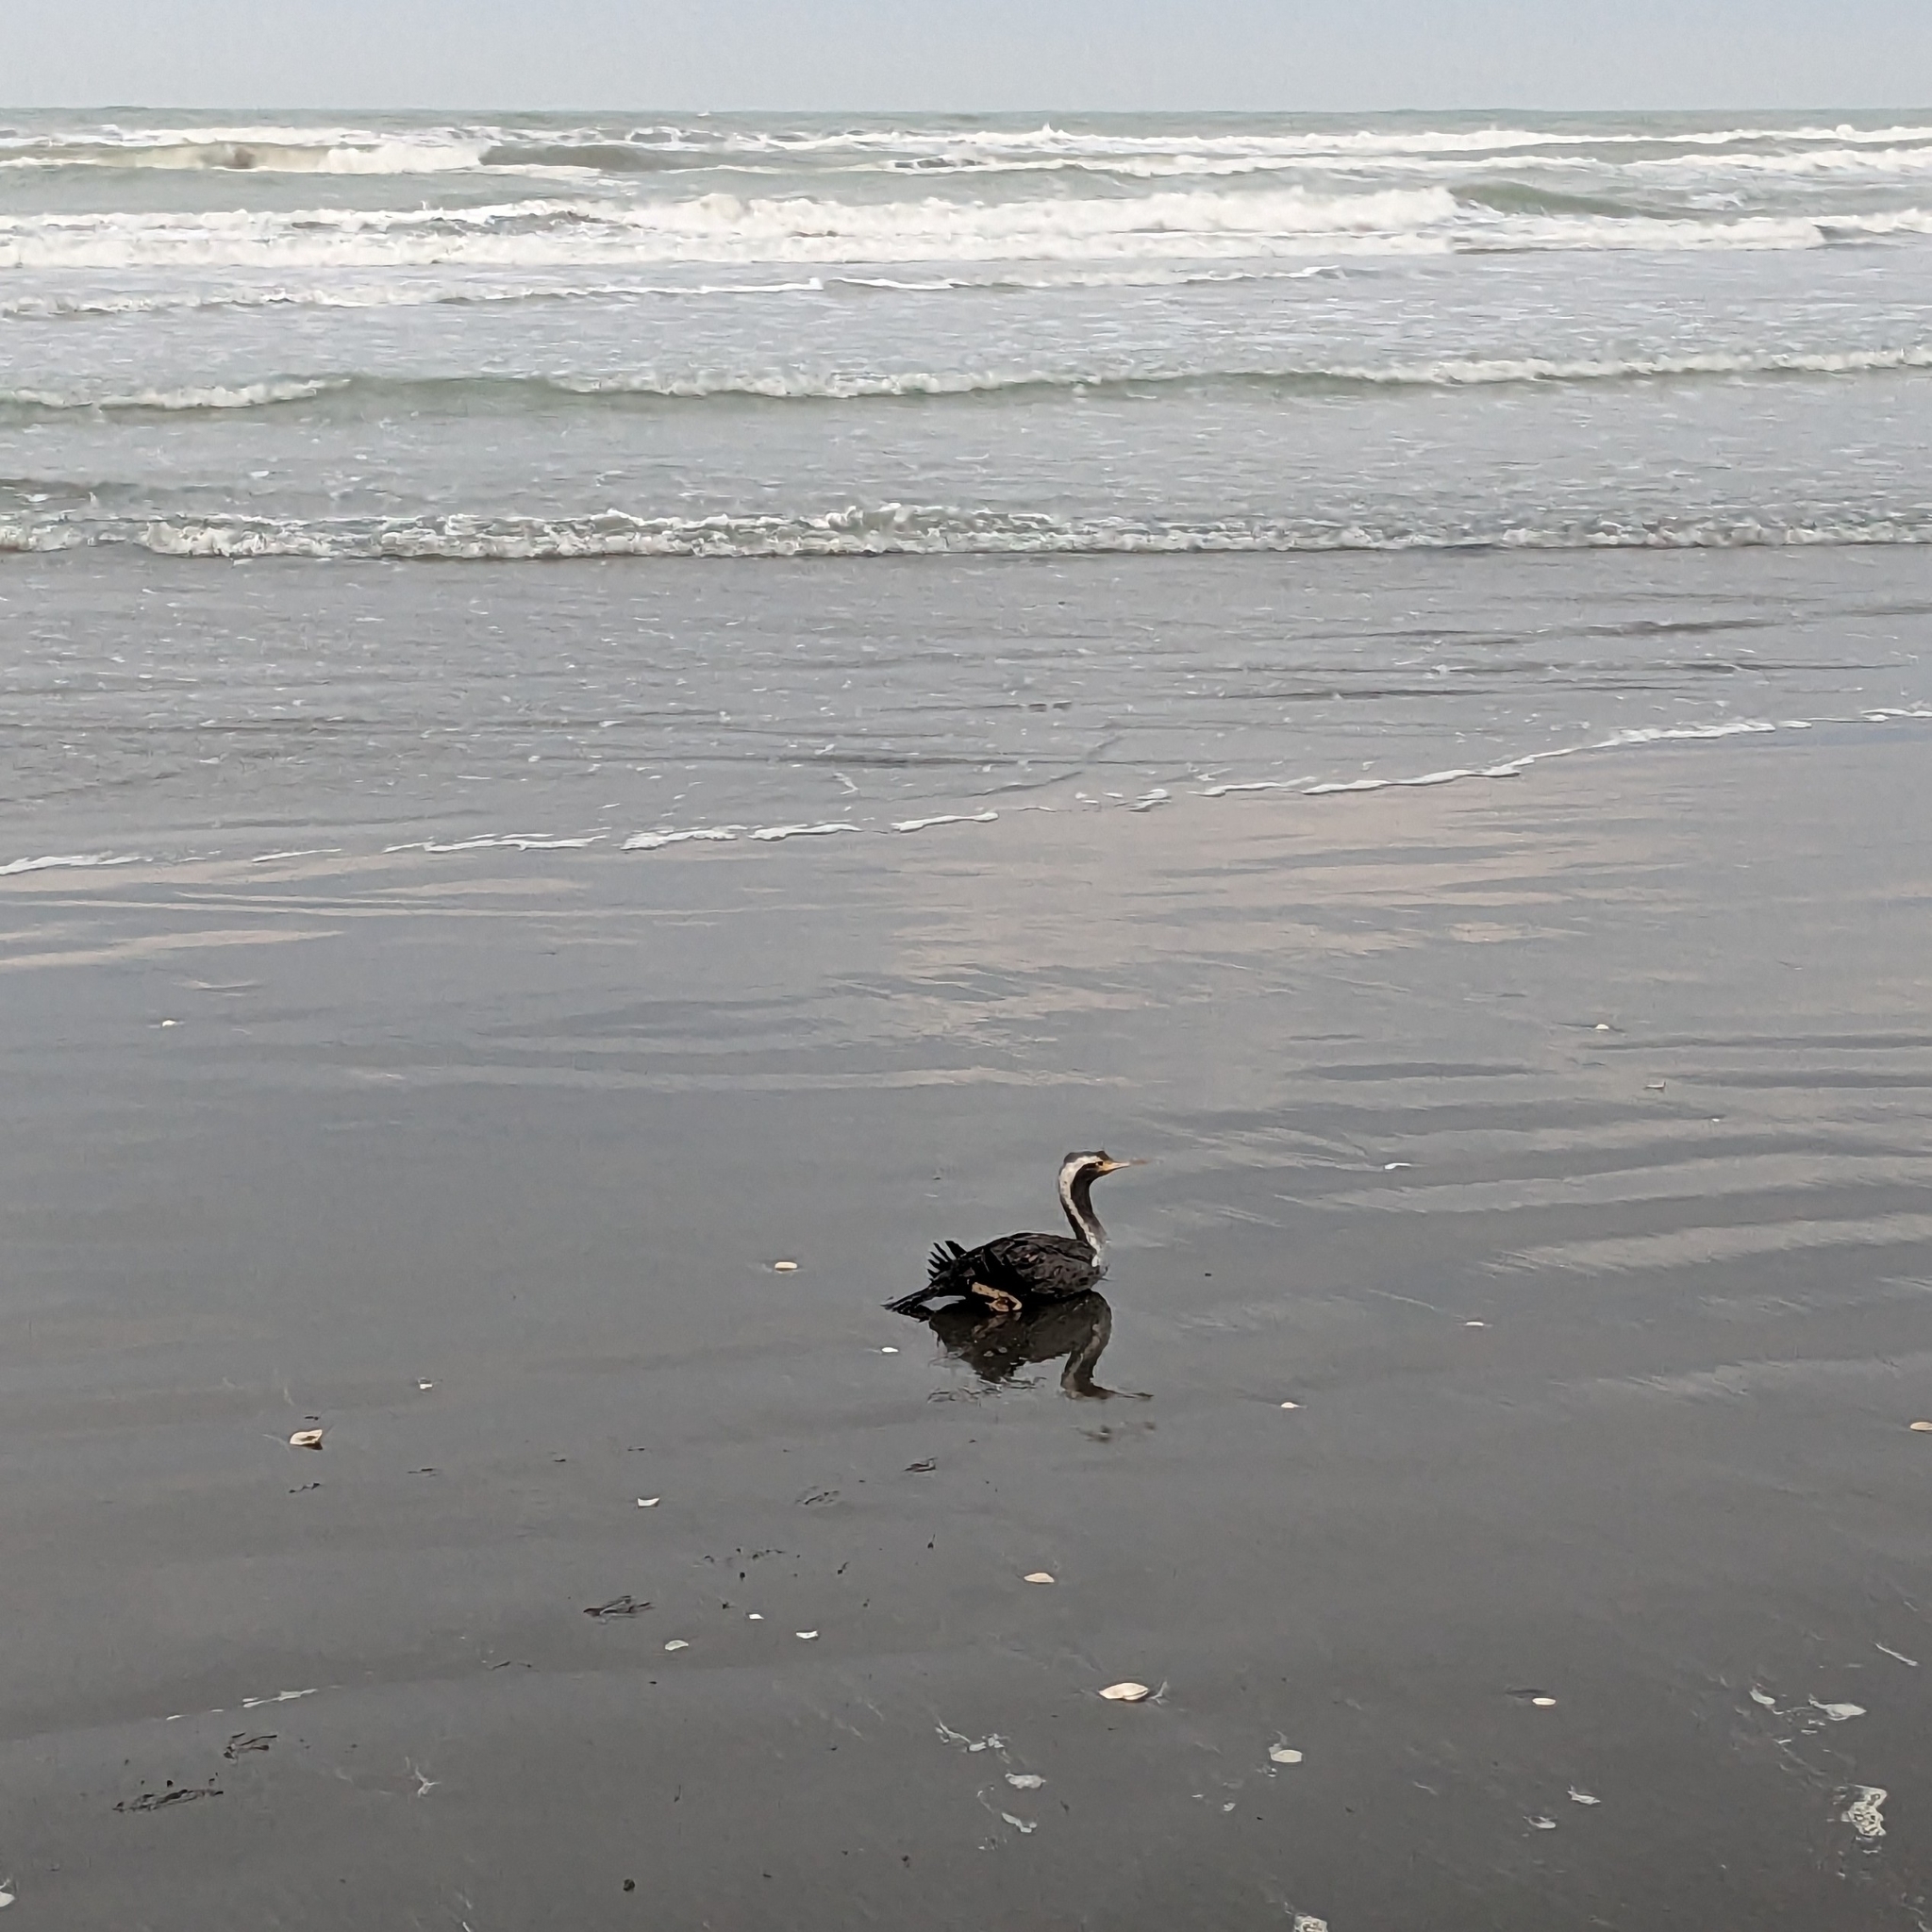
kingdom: Animalia
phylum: Chordata
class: Aves
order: Suliformes
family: Phalacrocoracidae
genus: Phalacrocorax
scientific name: Phalacrocorax punctatus
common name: Spotted shag
